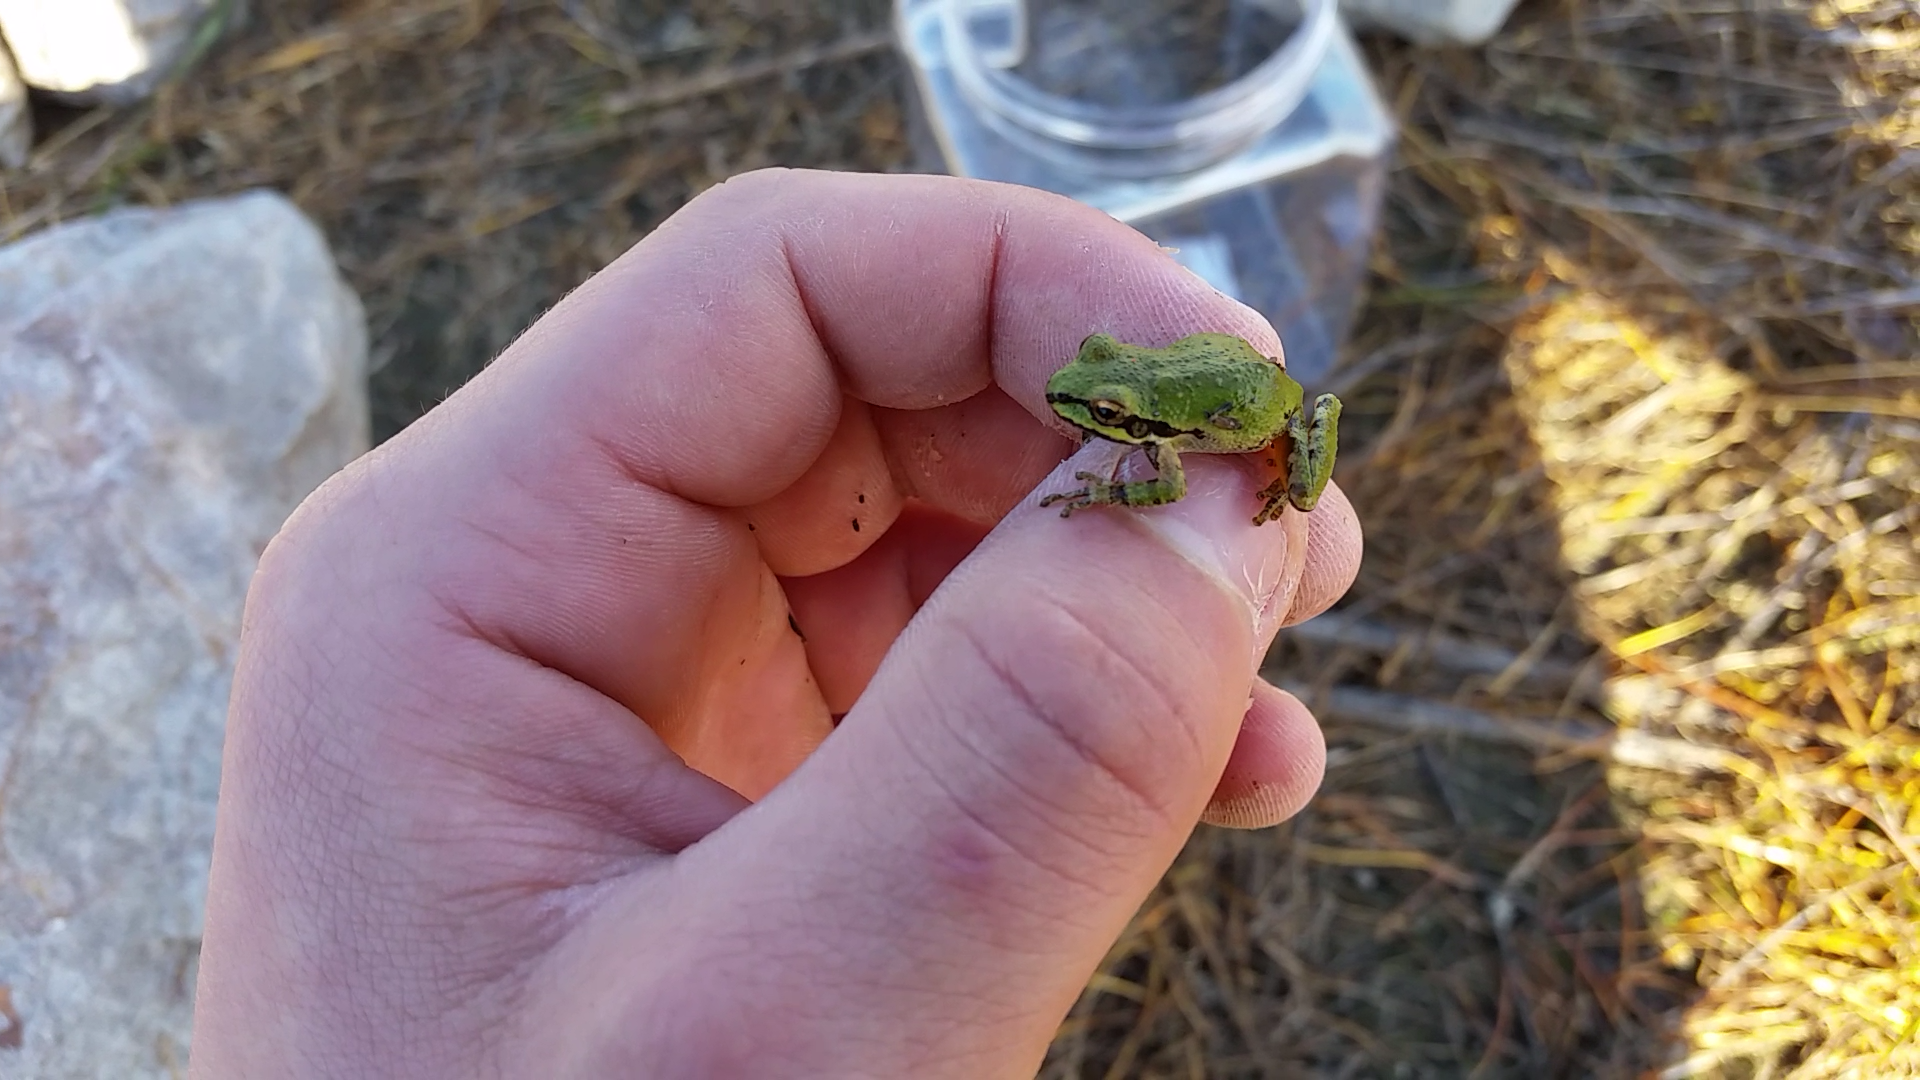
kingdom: Animalia
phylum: Chordata
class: Amphibia
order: Anura
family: Hylidae
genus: Pseudacris
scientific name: Pseudacris regilla
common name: Pacific chorus frog
